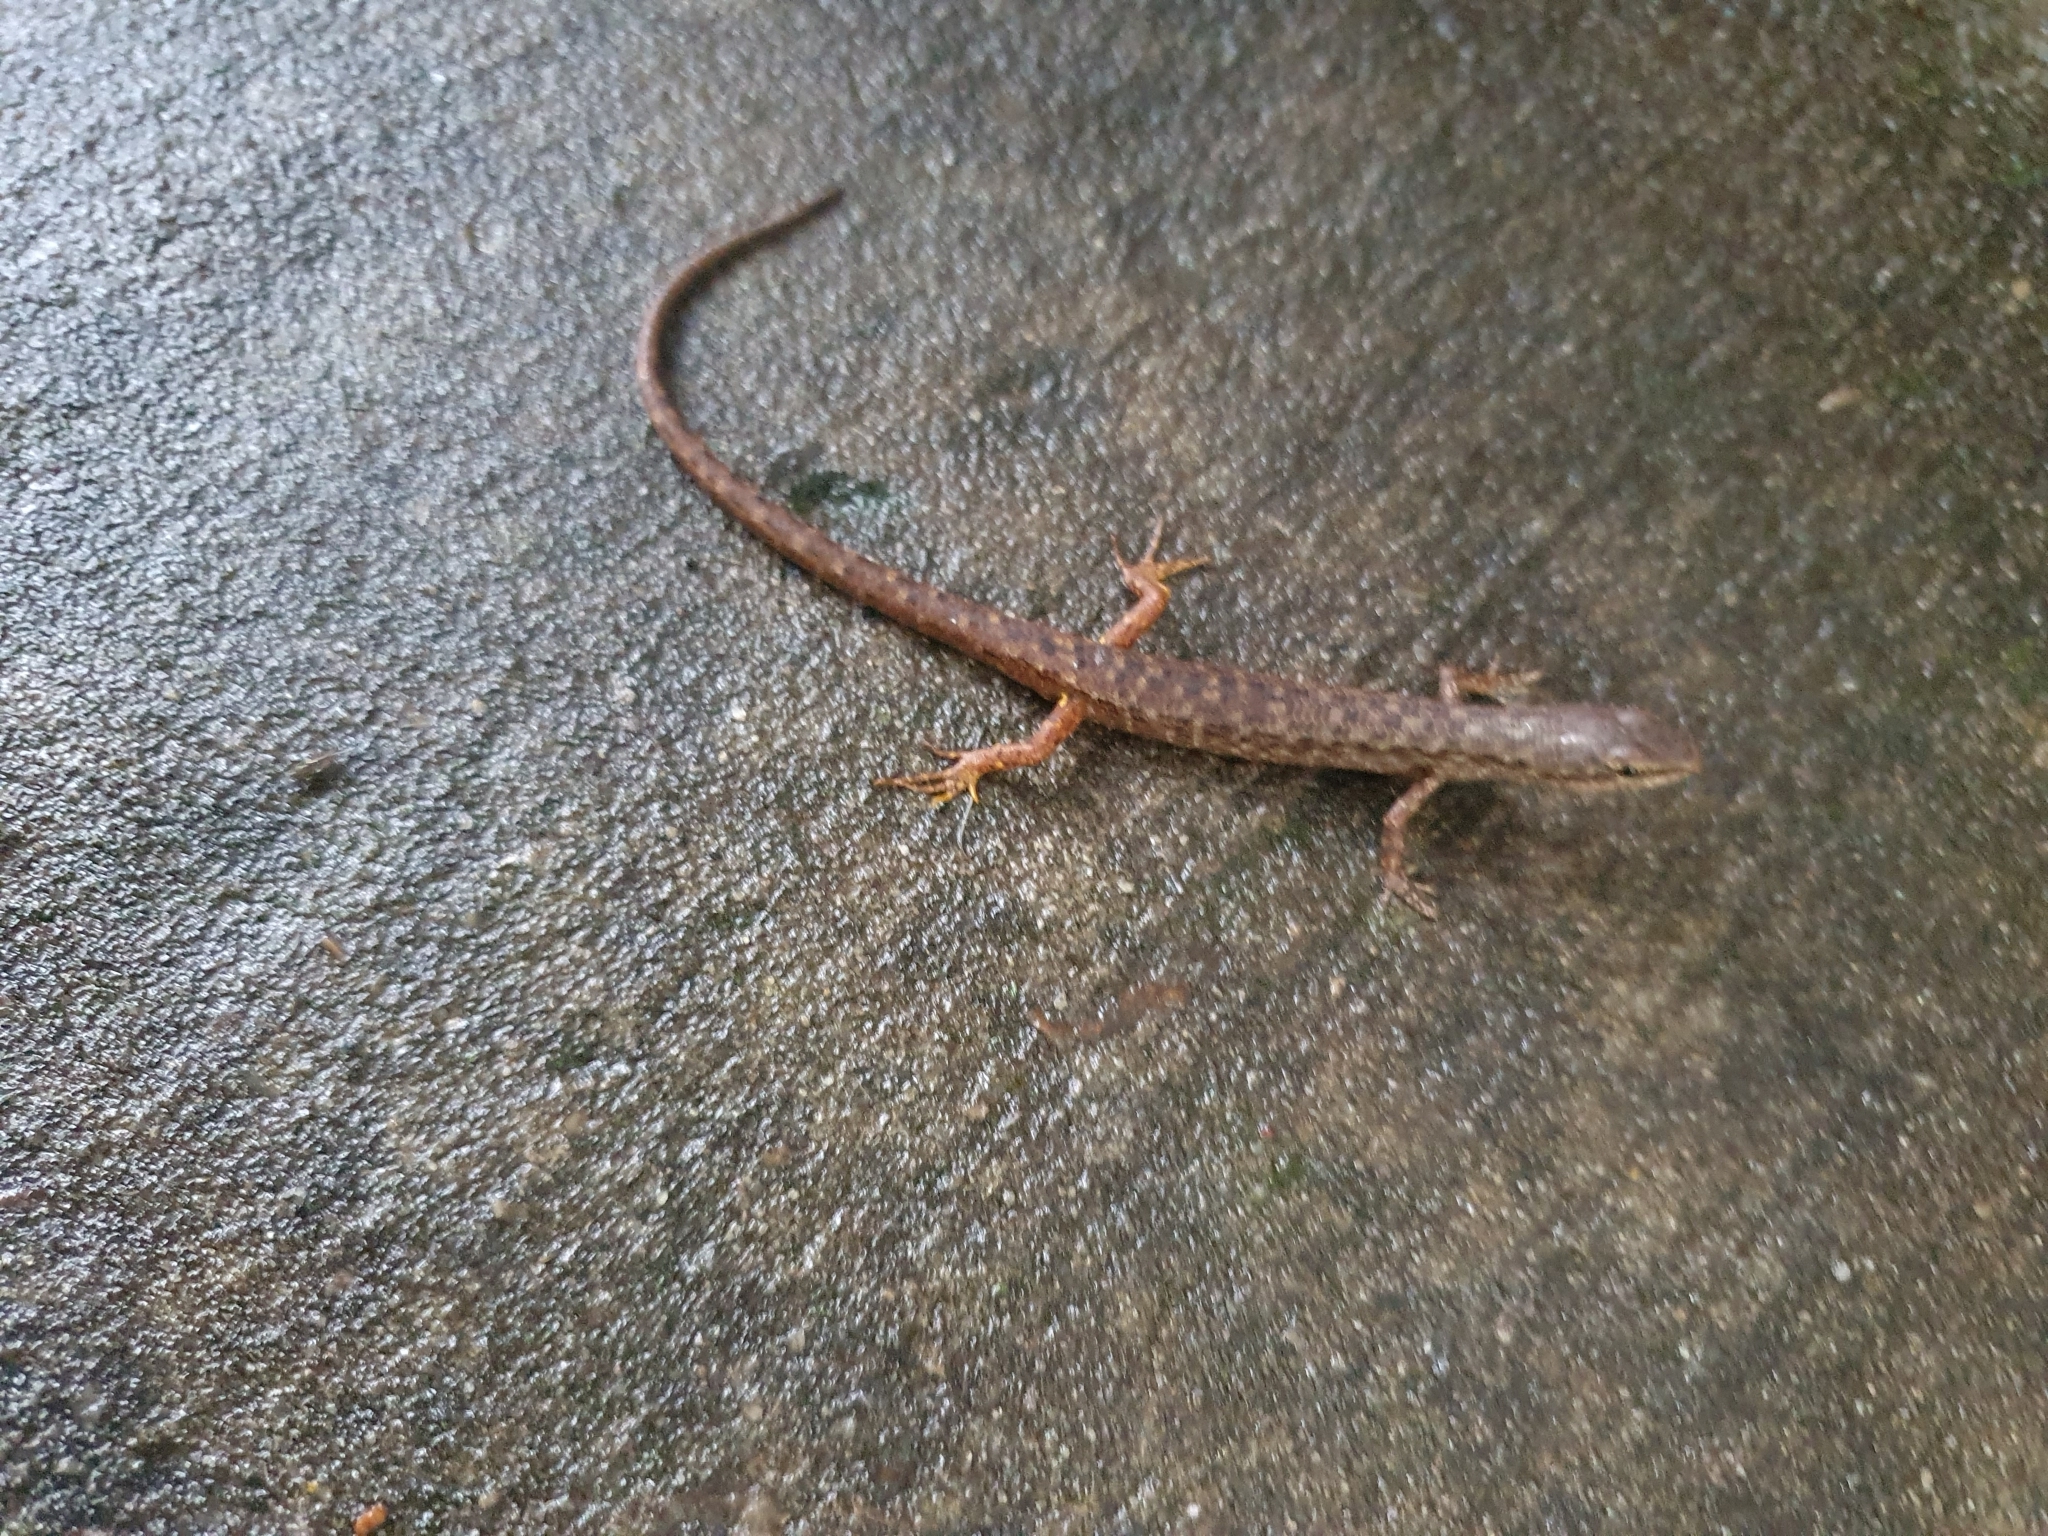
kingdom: Animalia
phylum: Chordata
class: Squamata
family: Scincidae
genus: Saproscincus
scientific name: Saproscincus spectabilis
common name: Gully shadeskink
